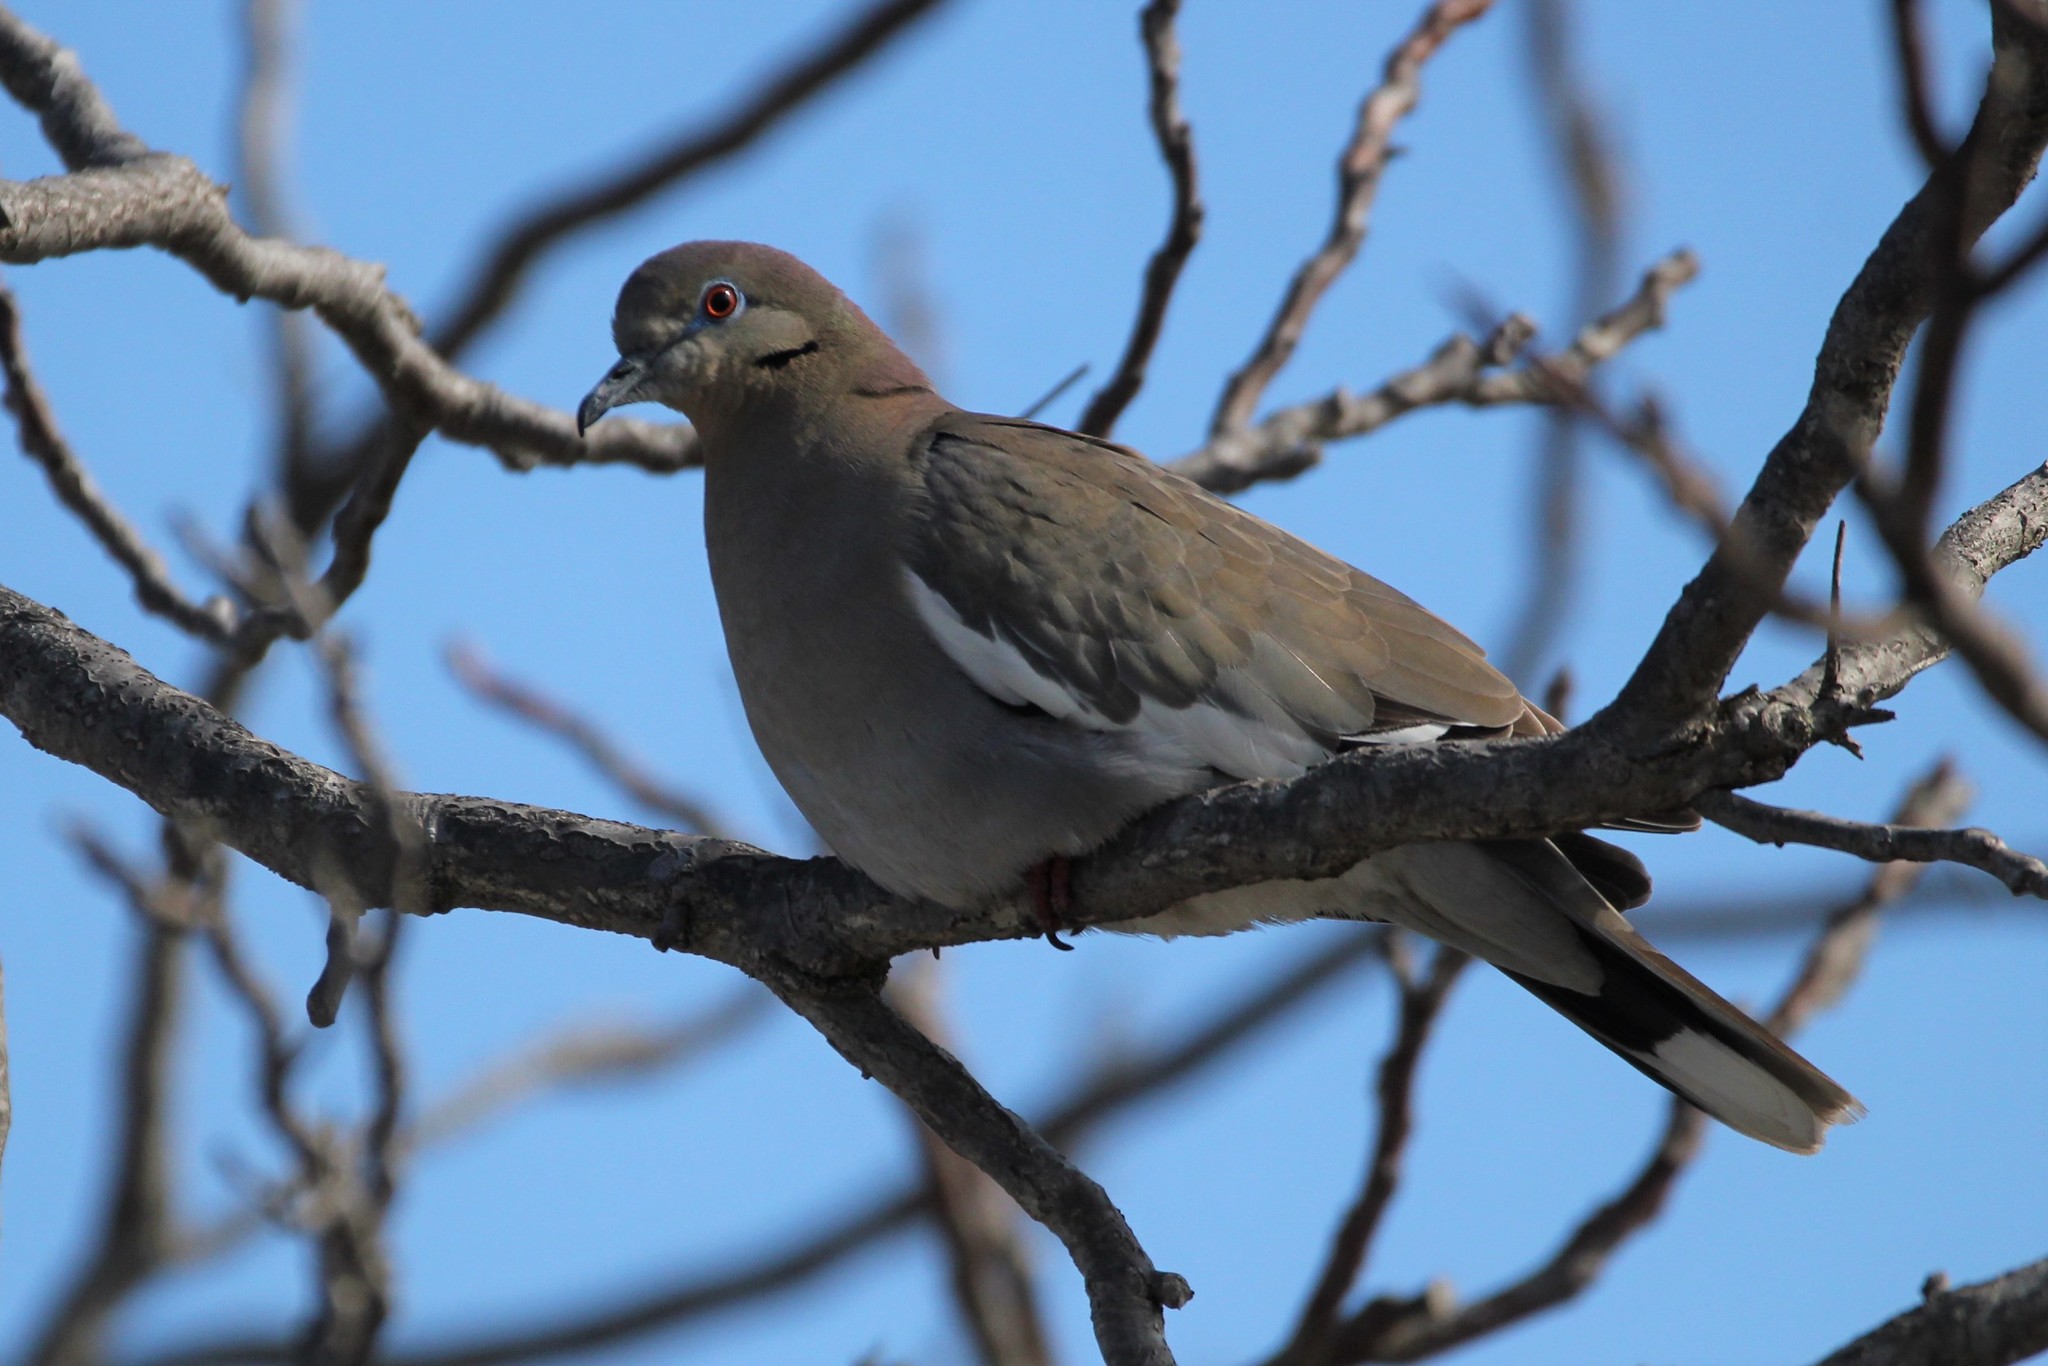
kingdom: Animalia
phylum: Chordata
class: Aves
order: Columbiformes
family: Columbidae
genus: Zenaida
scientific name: Zenaida asiatica
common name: White-winged dove
